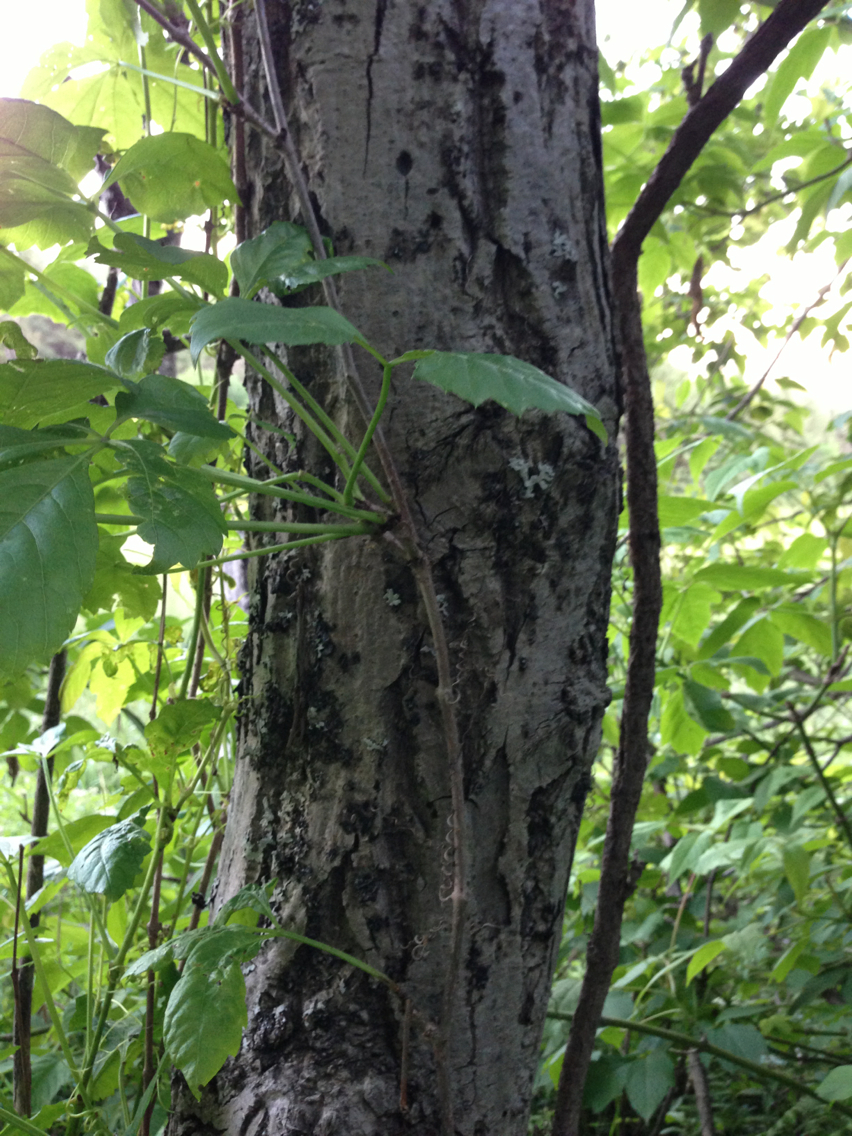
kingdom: Plantae
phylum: Tracheophyta
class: Magnoliopsida
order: Fagales
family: Juglandaceae
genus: Juglans
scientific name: Juglans cinerea
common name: Butternut
